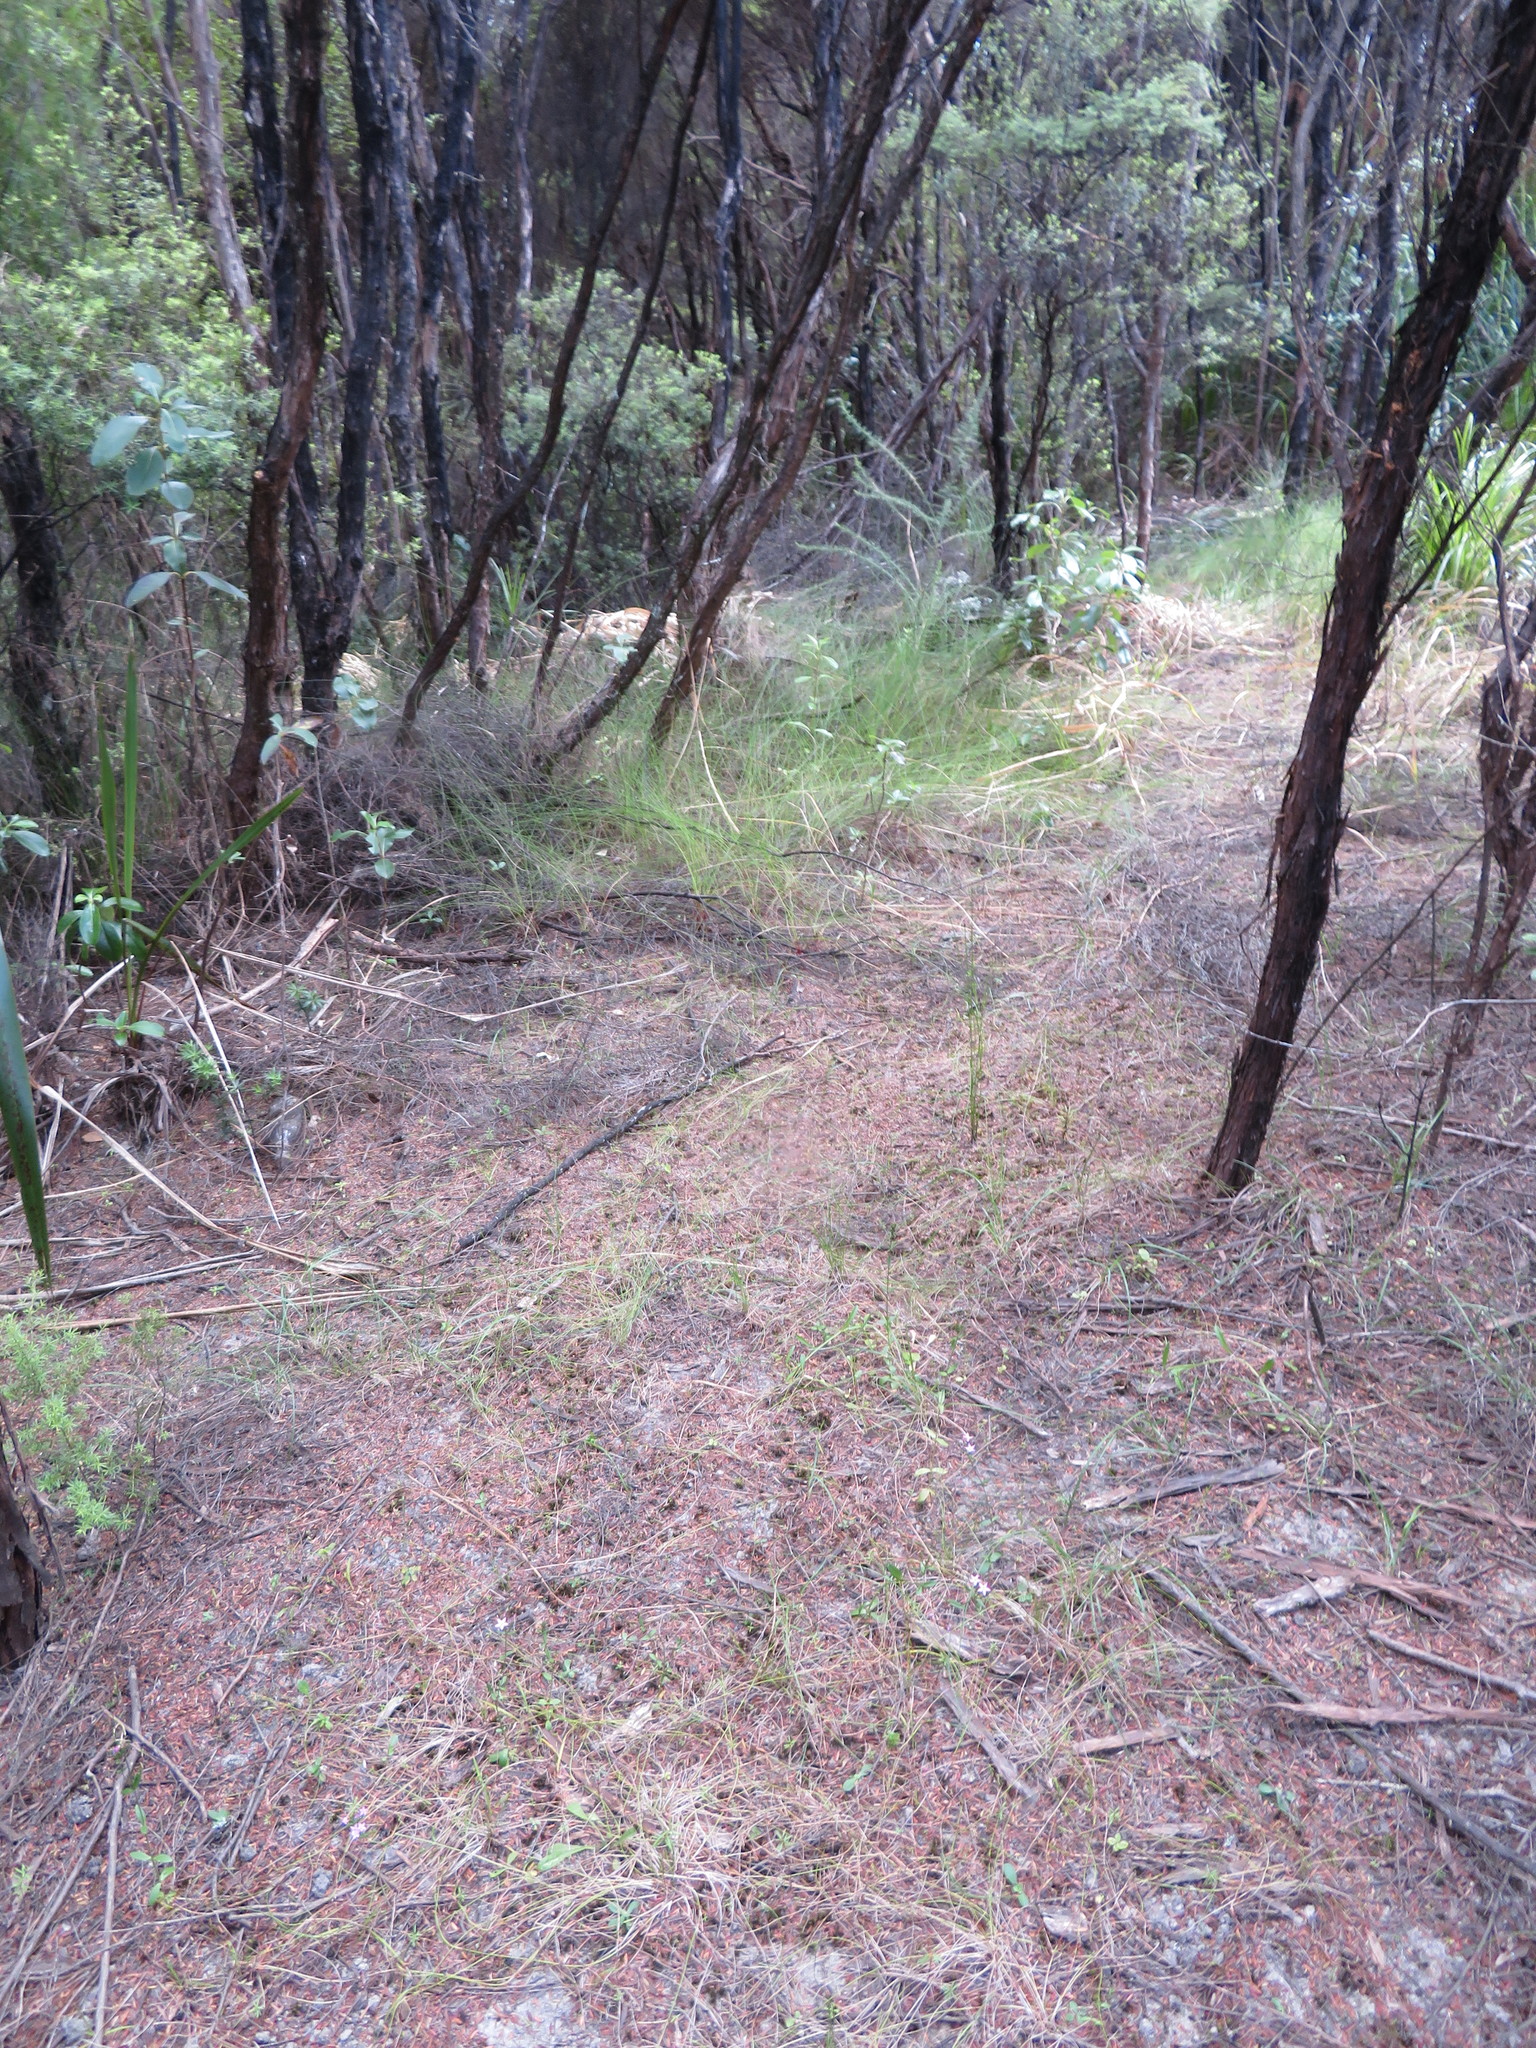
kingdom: Plantae
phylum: Tracheophyta
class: Magnoliopsida
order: Myrtales
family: Myrtaceae
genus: Leptospermum
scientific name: Leptospermum scoparium
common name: Broom tea-tree
